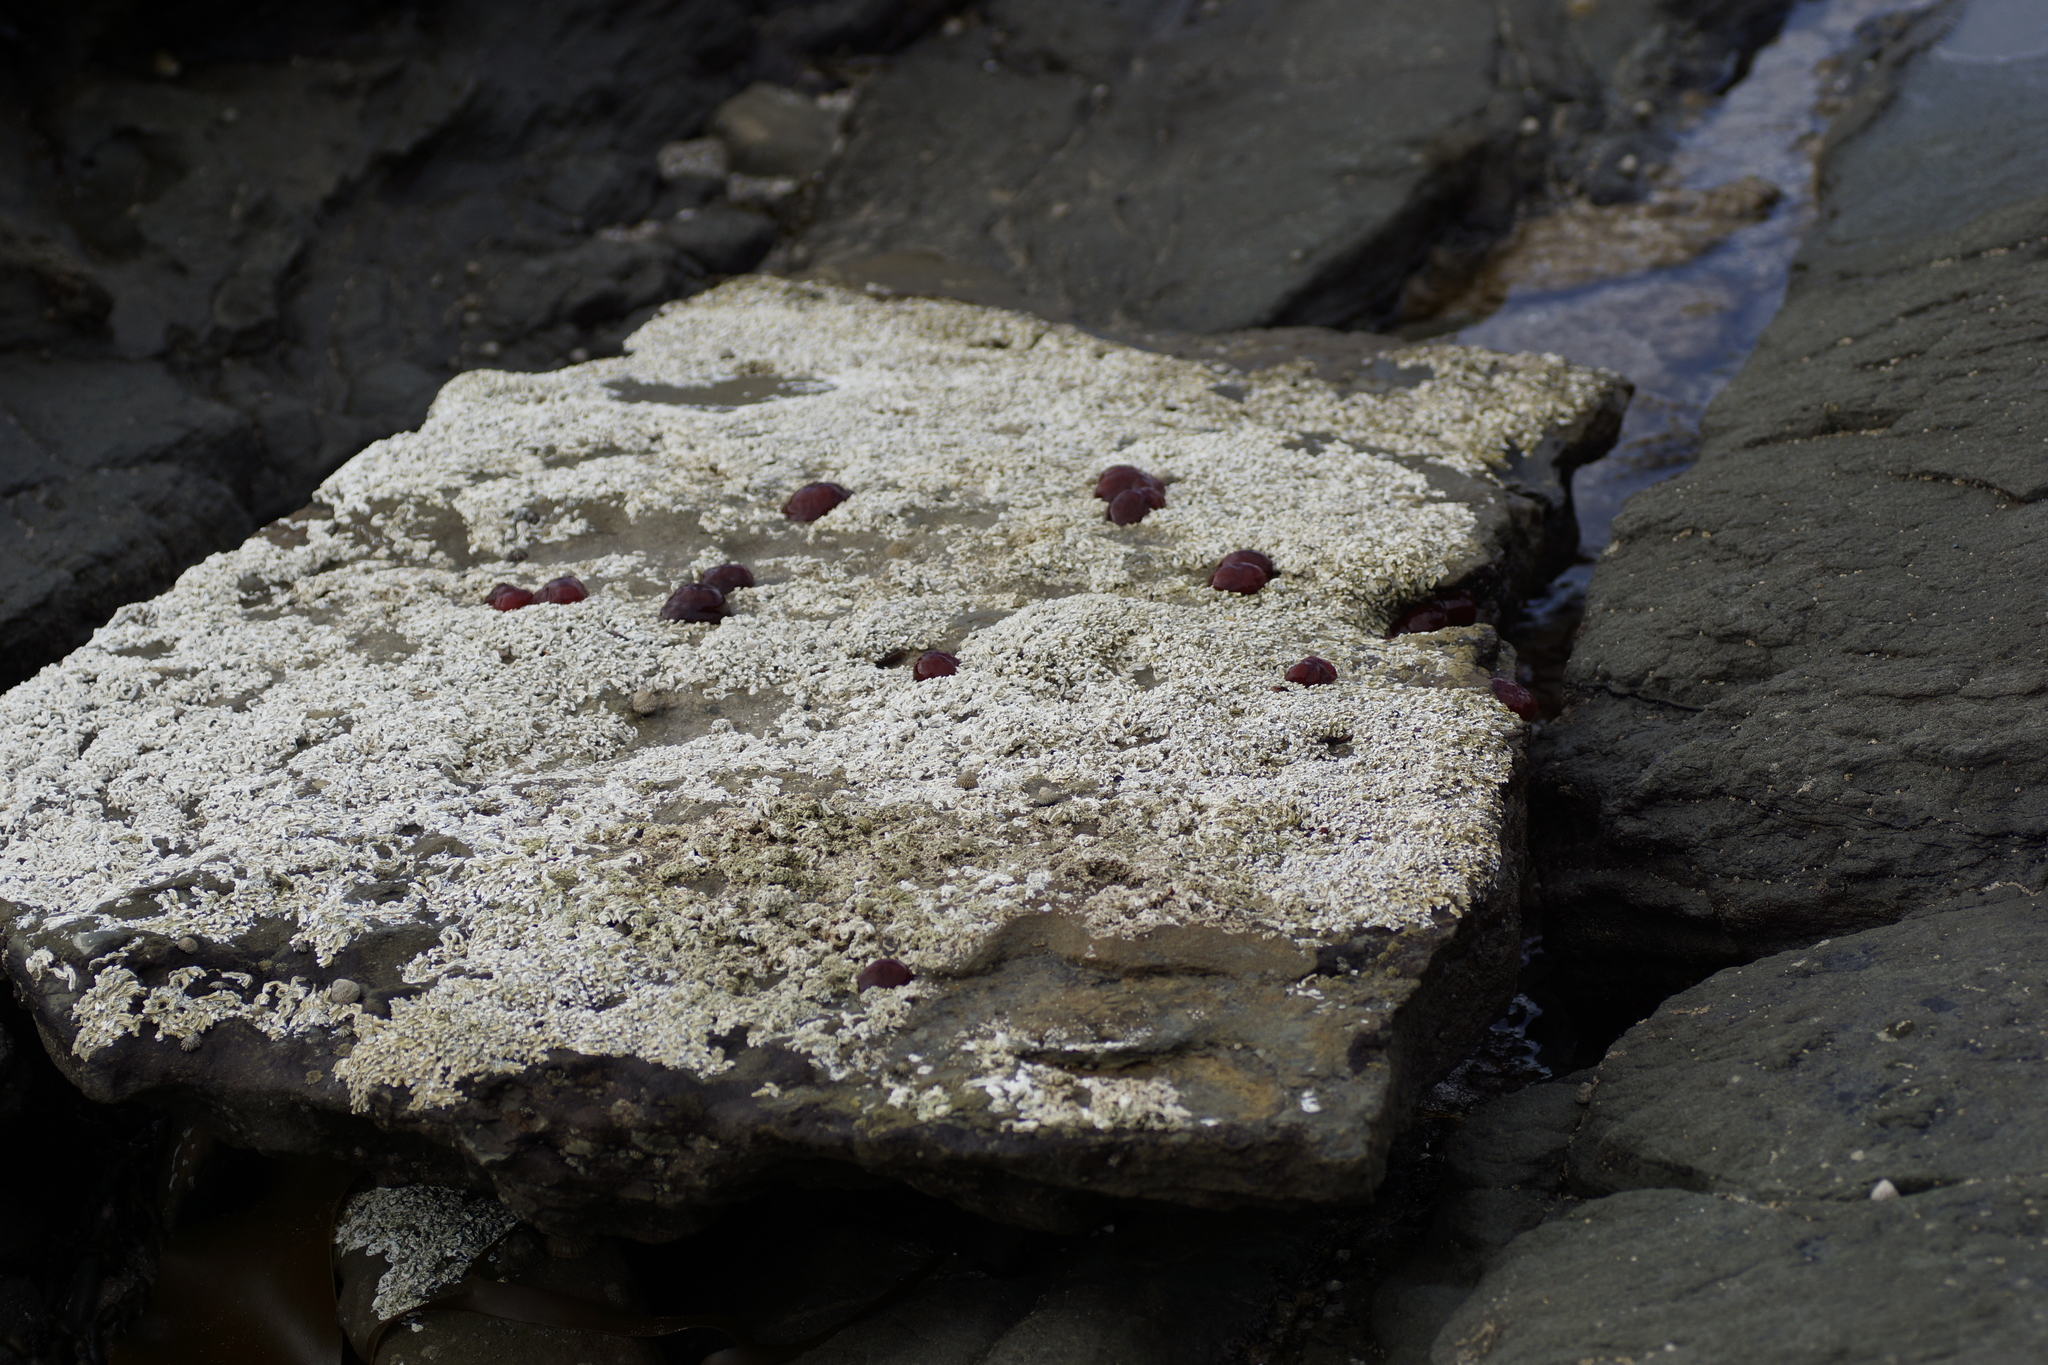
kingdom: Animalia
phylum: Annelida
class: Polychaeta
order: Sabellida
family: Serpulidae
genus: Galeolaria
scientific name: Galeolaria caespitosa
